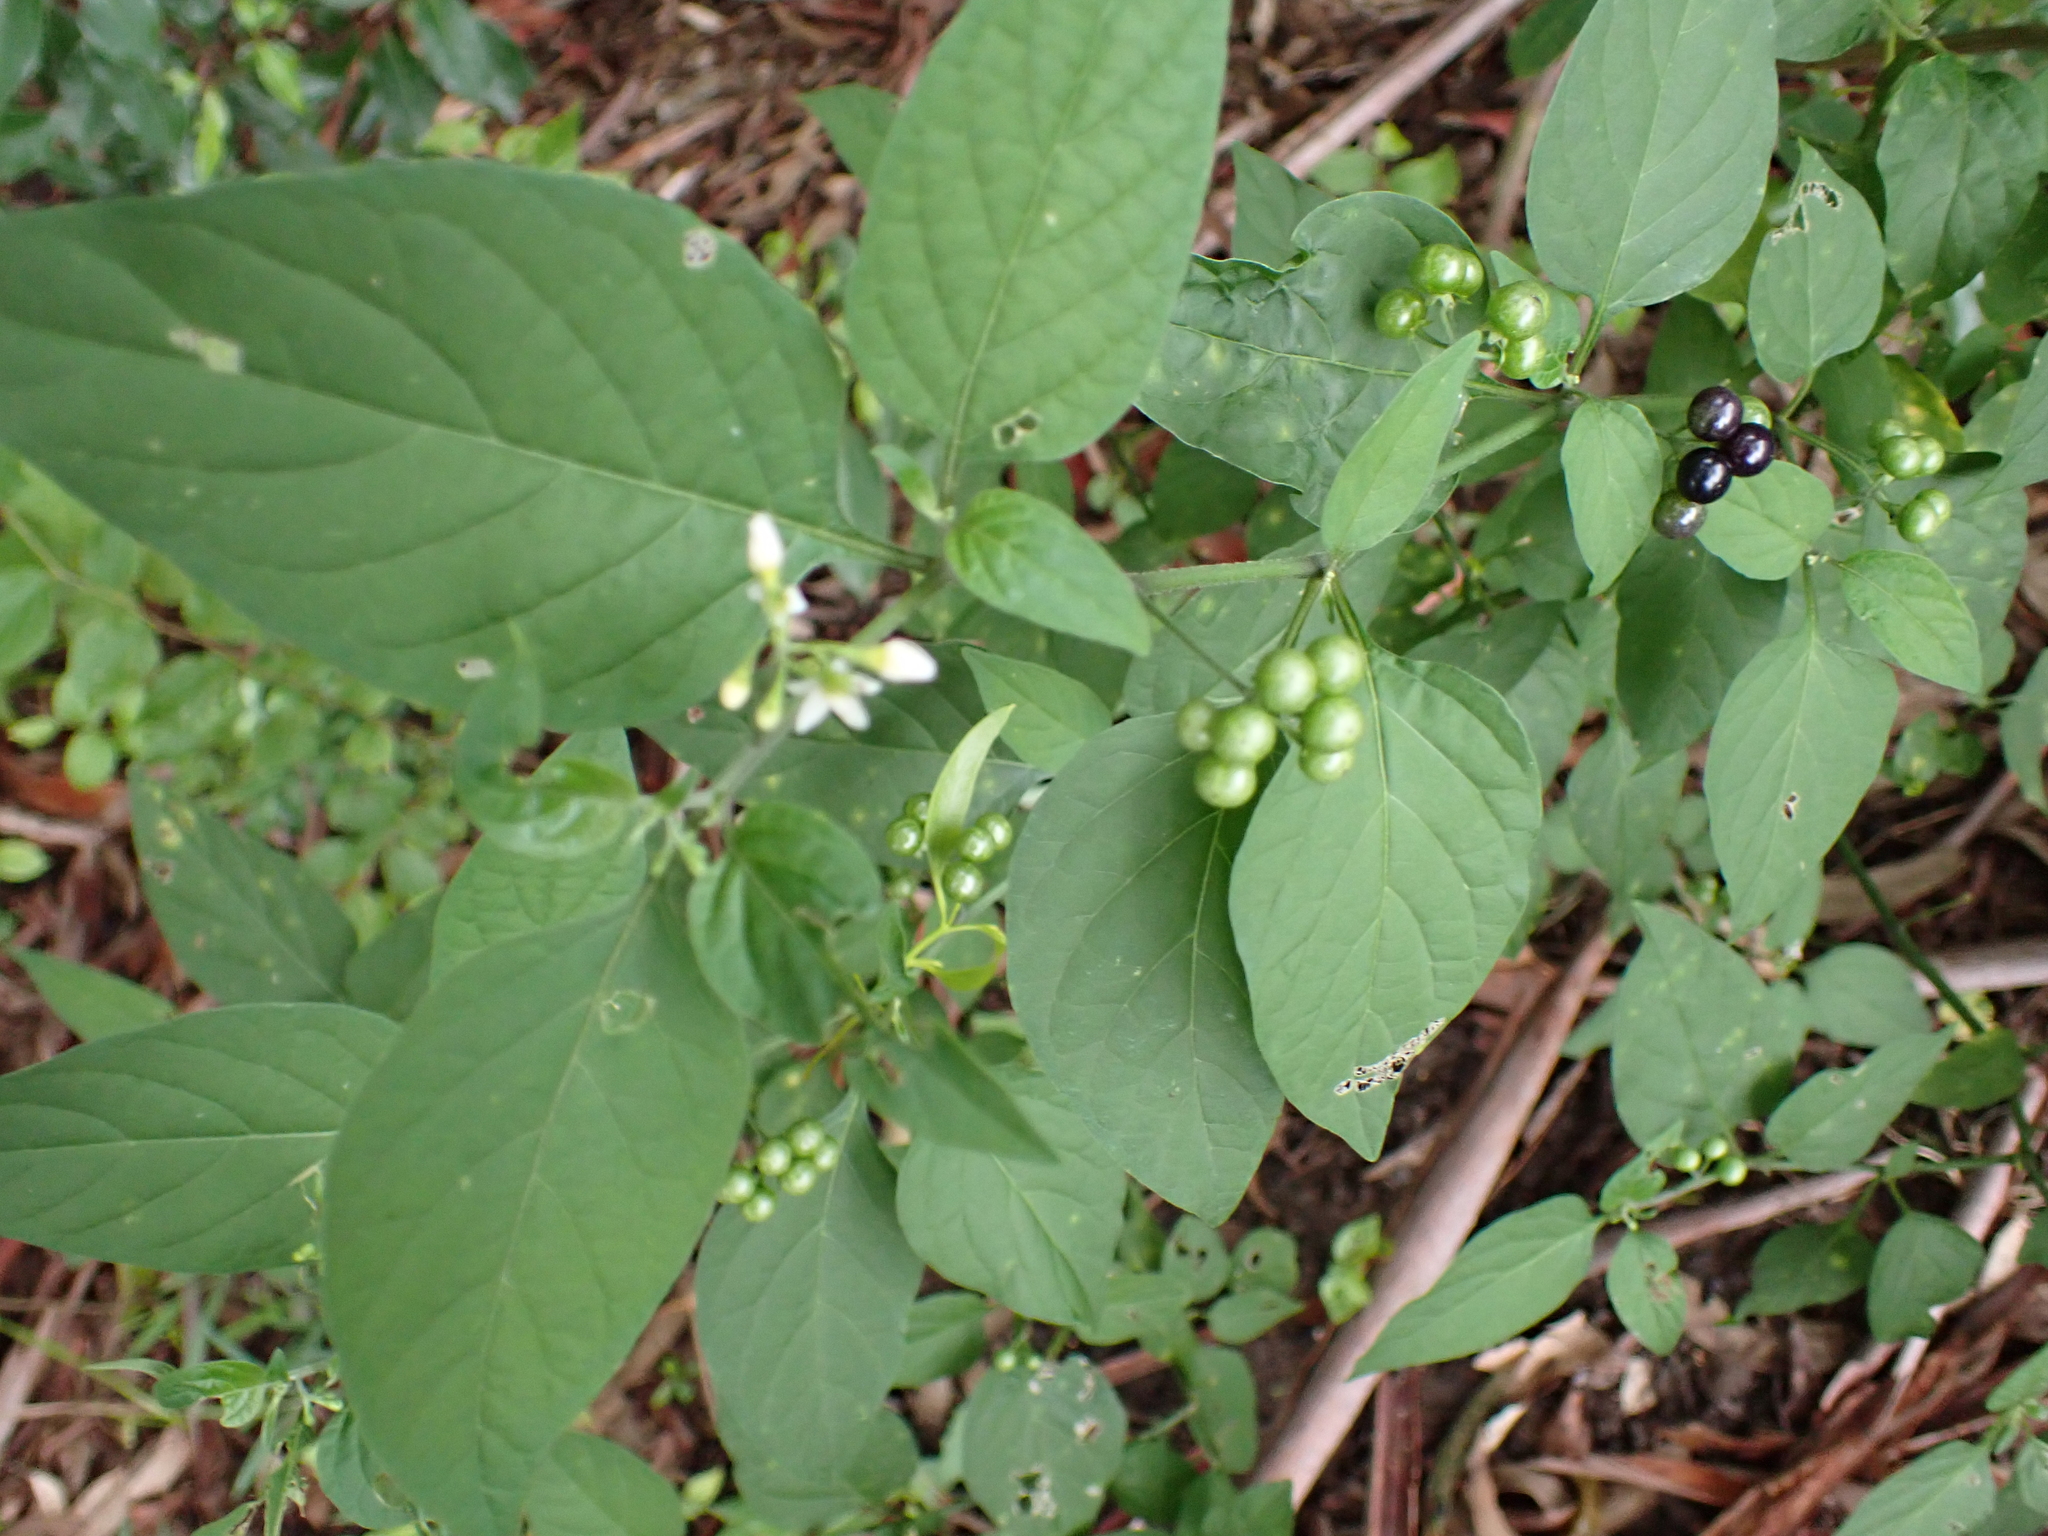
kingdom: Plantae
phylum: Tracheophyta
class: Magnoliopsida
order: Solanales
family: Solanaceae
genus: Solanum
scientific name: Solanum americanum
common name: American black nightshade
